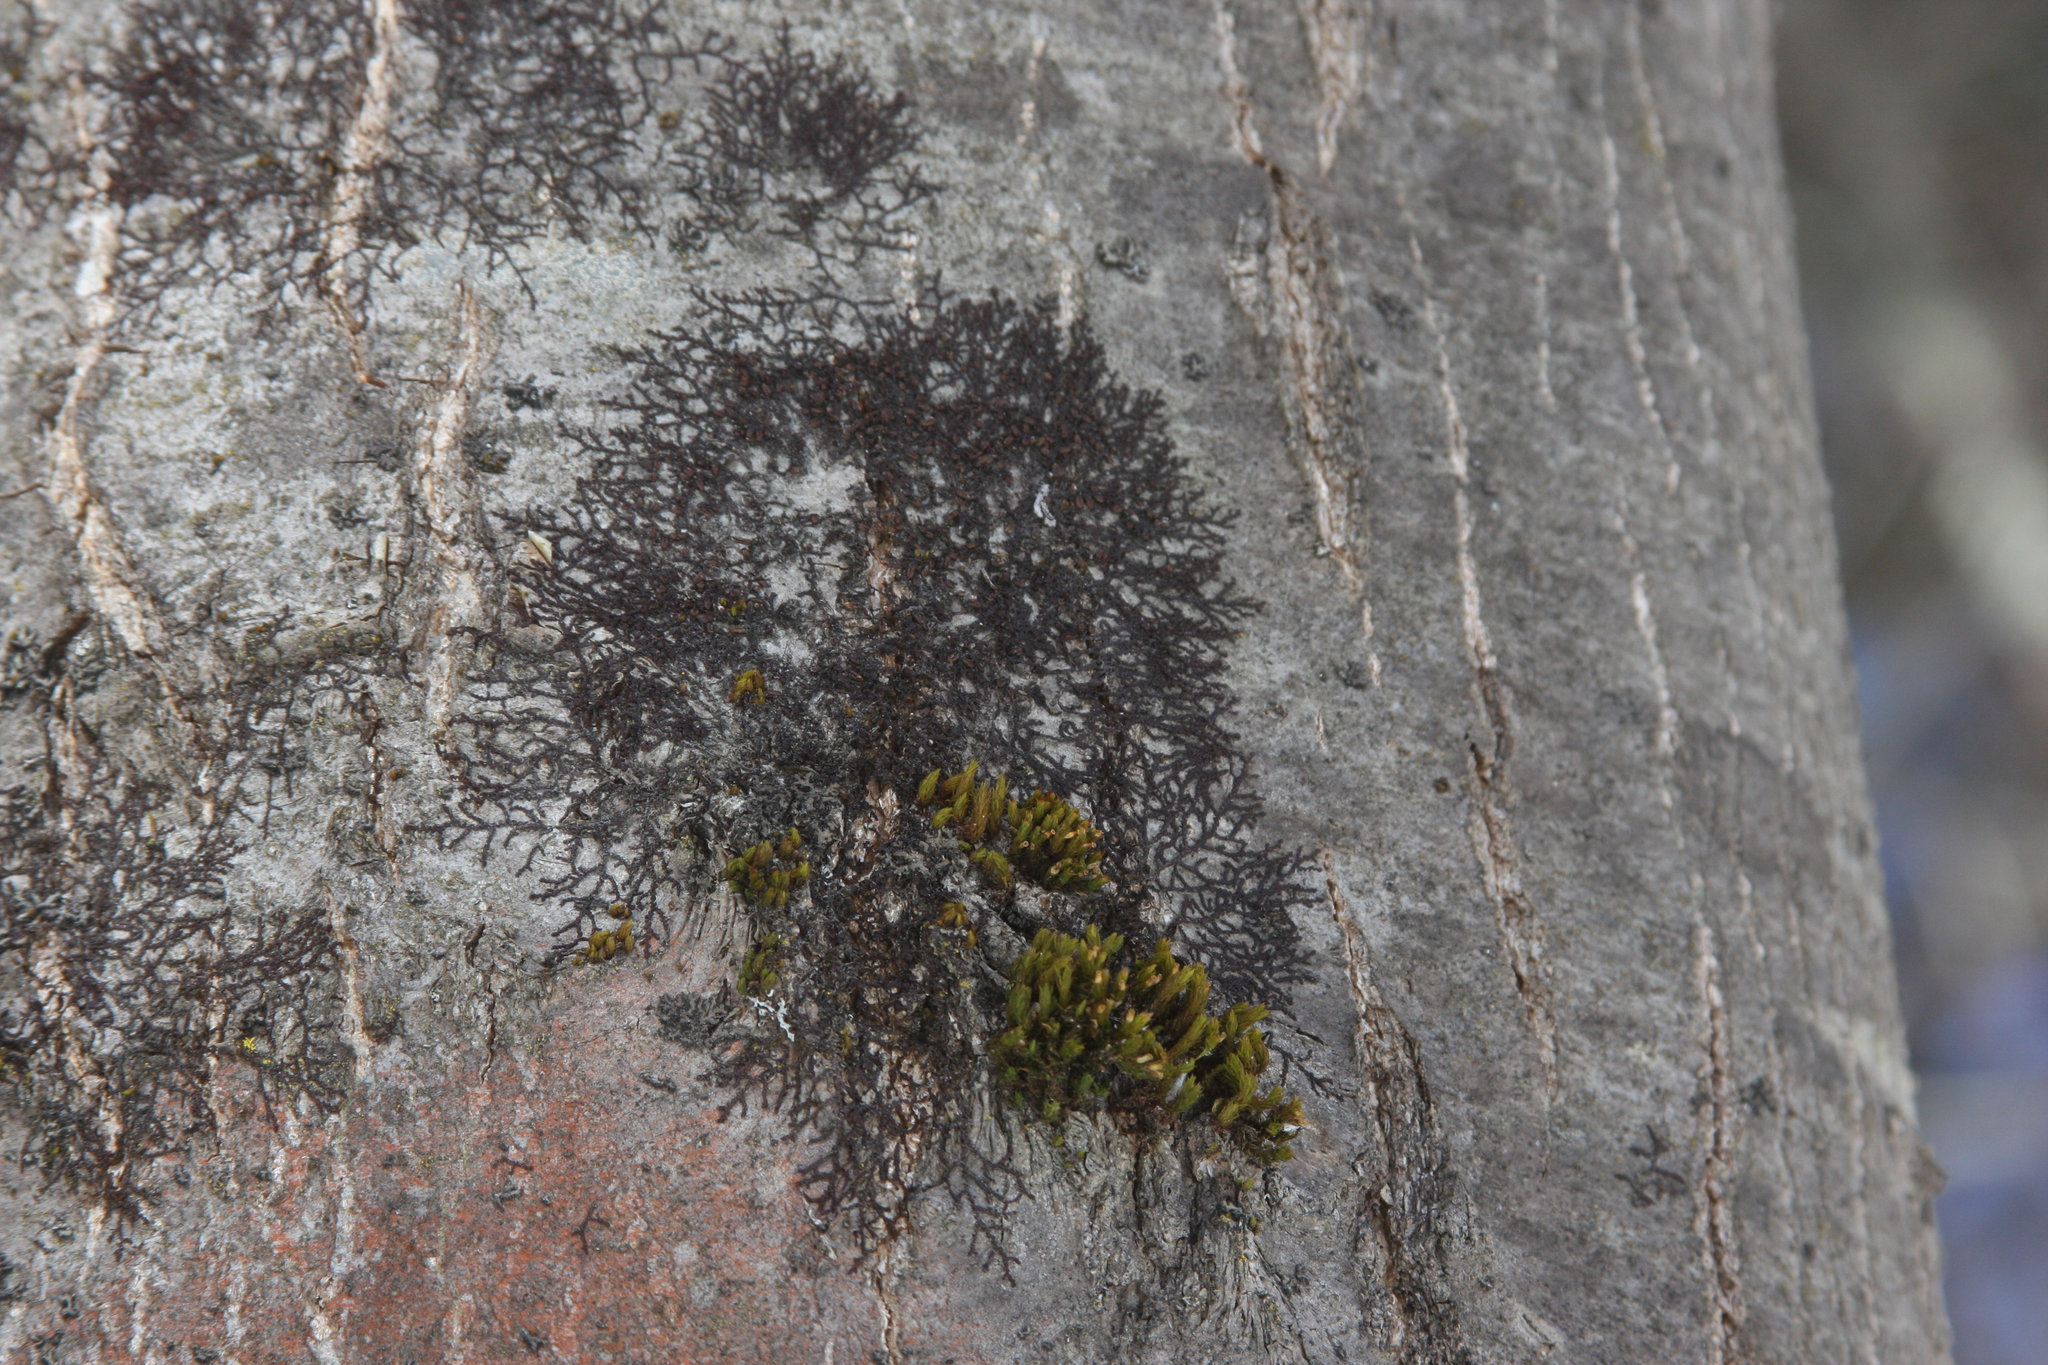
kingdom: Plantae
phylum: Marchantiophyta
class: Jungermanniopsida
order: Porellales
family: Frullaniaceae
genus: Frullania
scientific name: Frullania eboracensis
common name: New york scalewort
